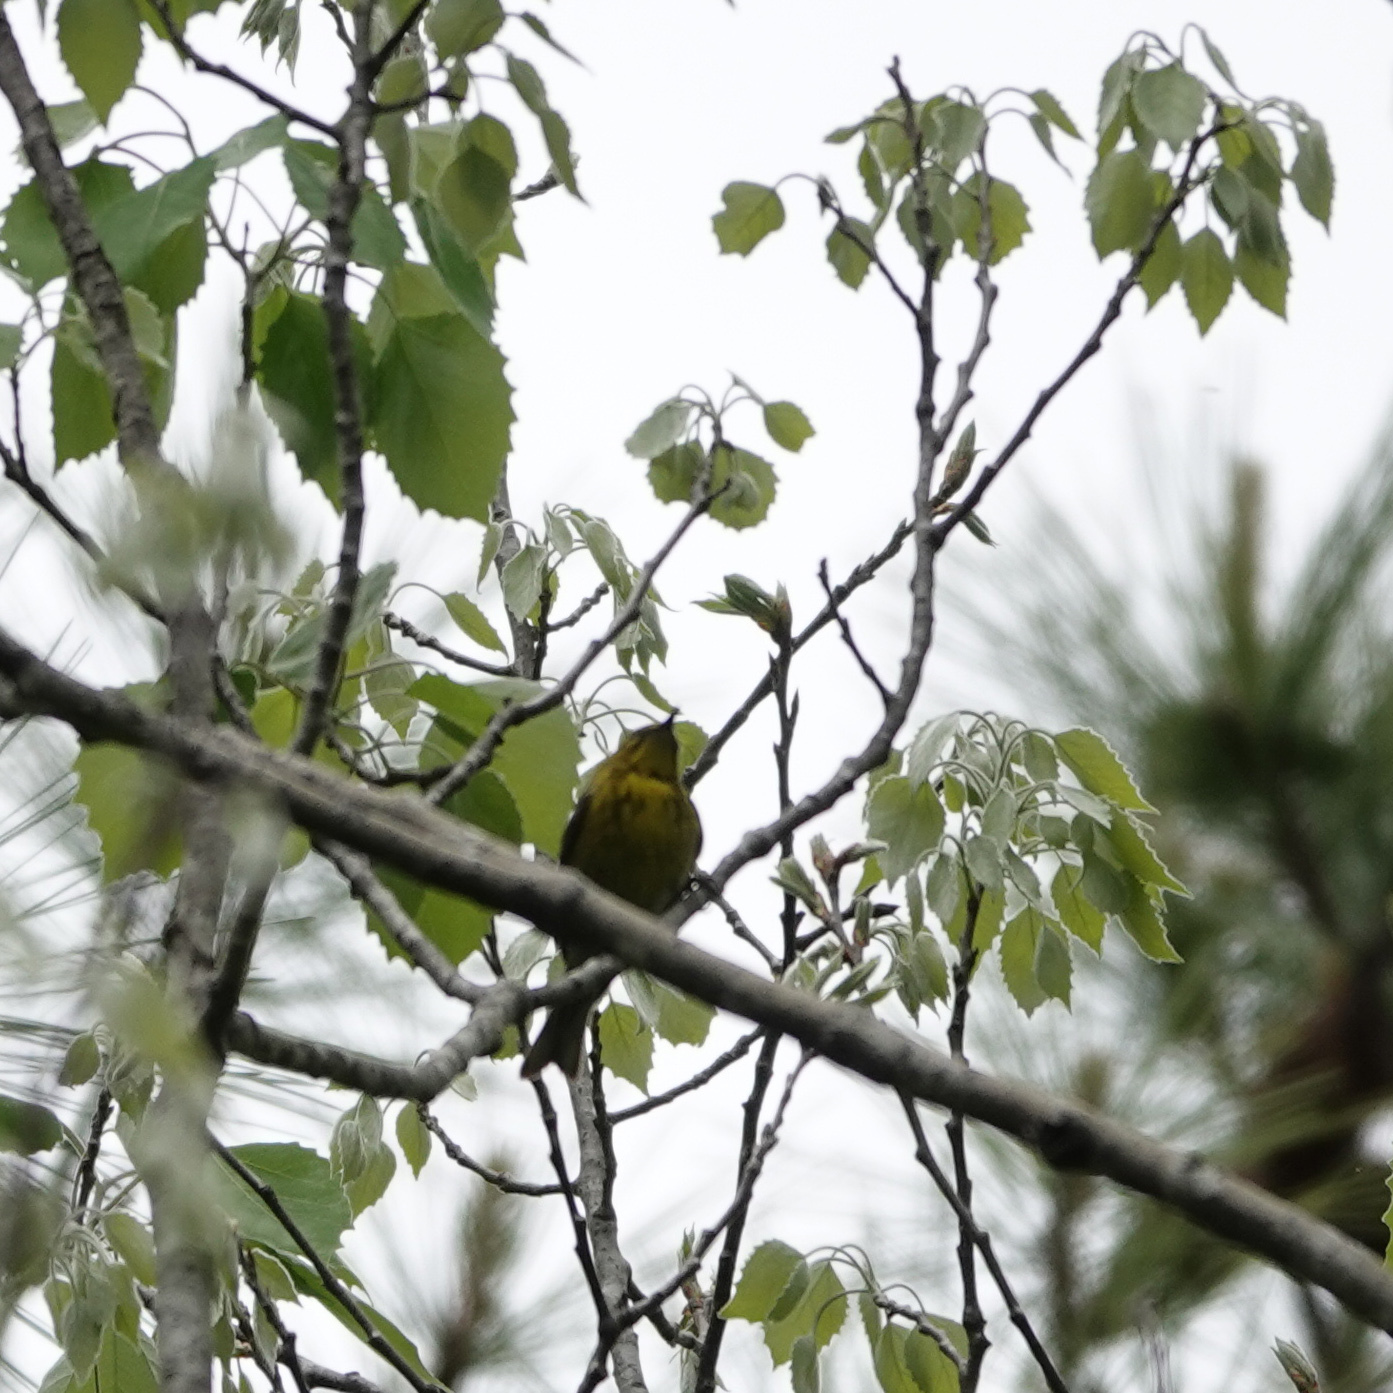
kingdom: Animalia
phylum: Chordata
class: Aves
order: Passeriformes
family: Parulidae
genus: Setophaga
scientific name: Setophaga pinus
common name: Pine warbler
